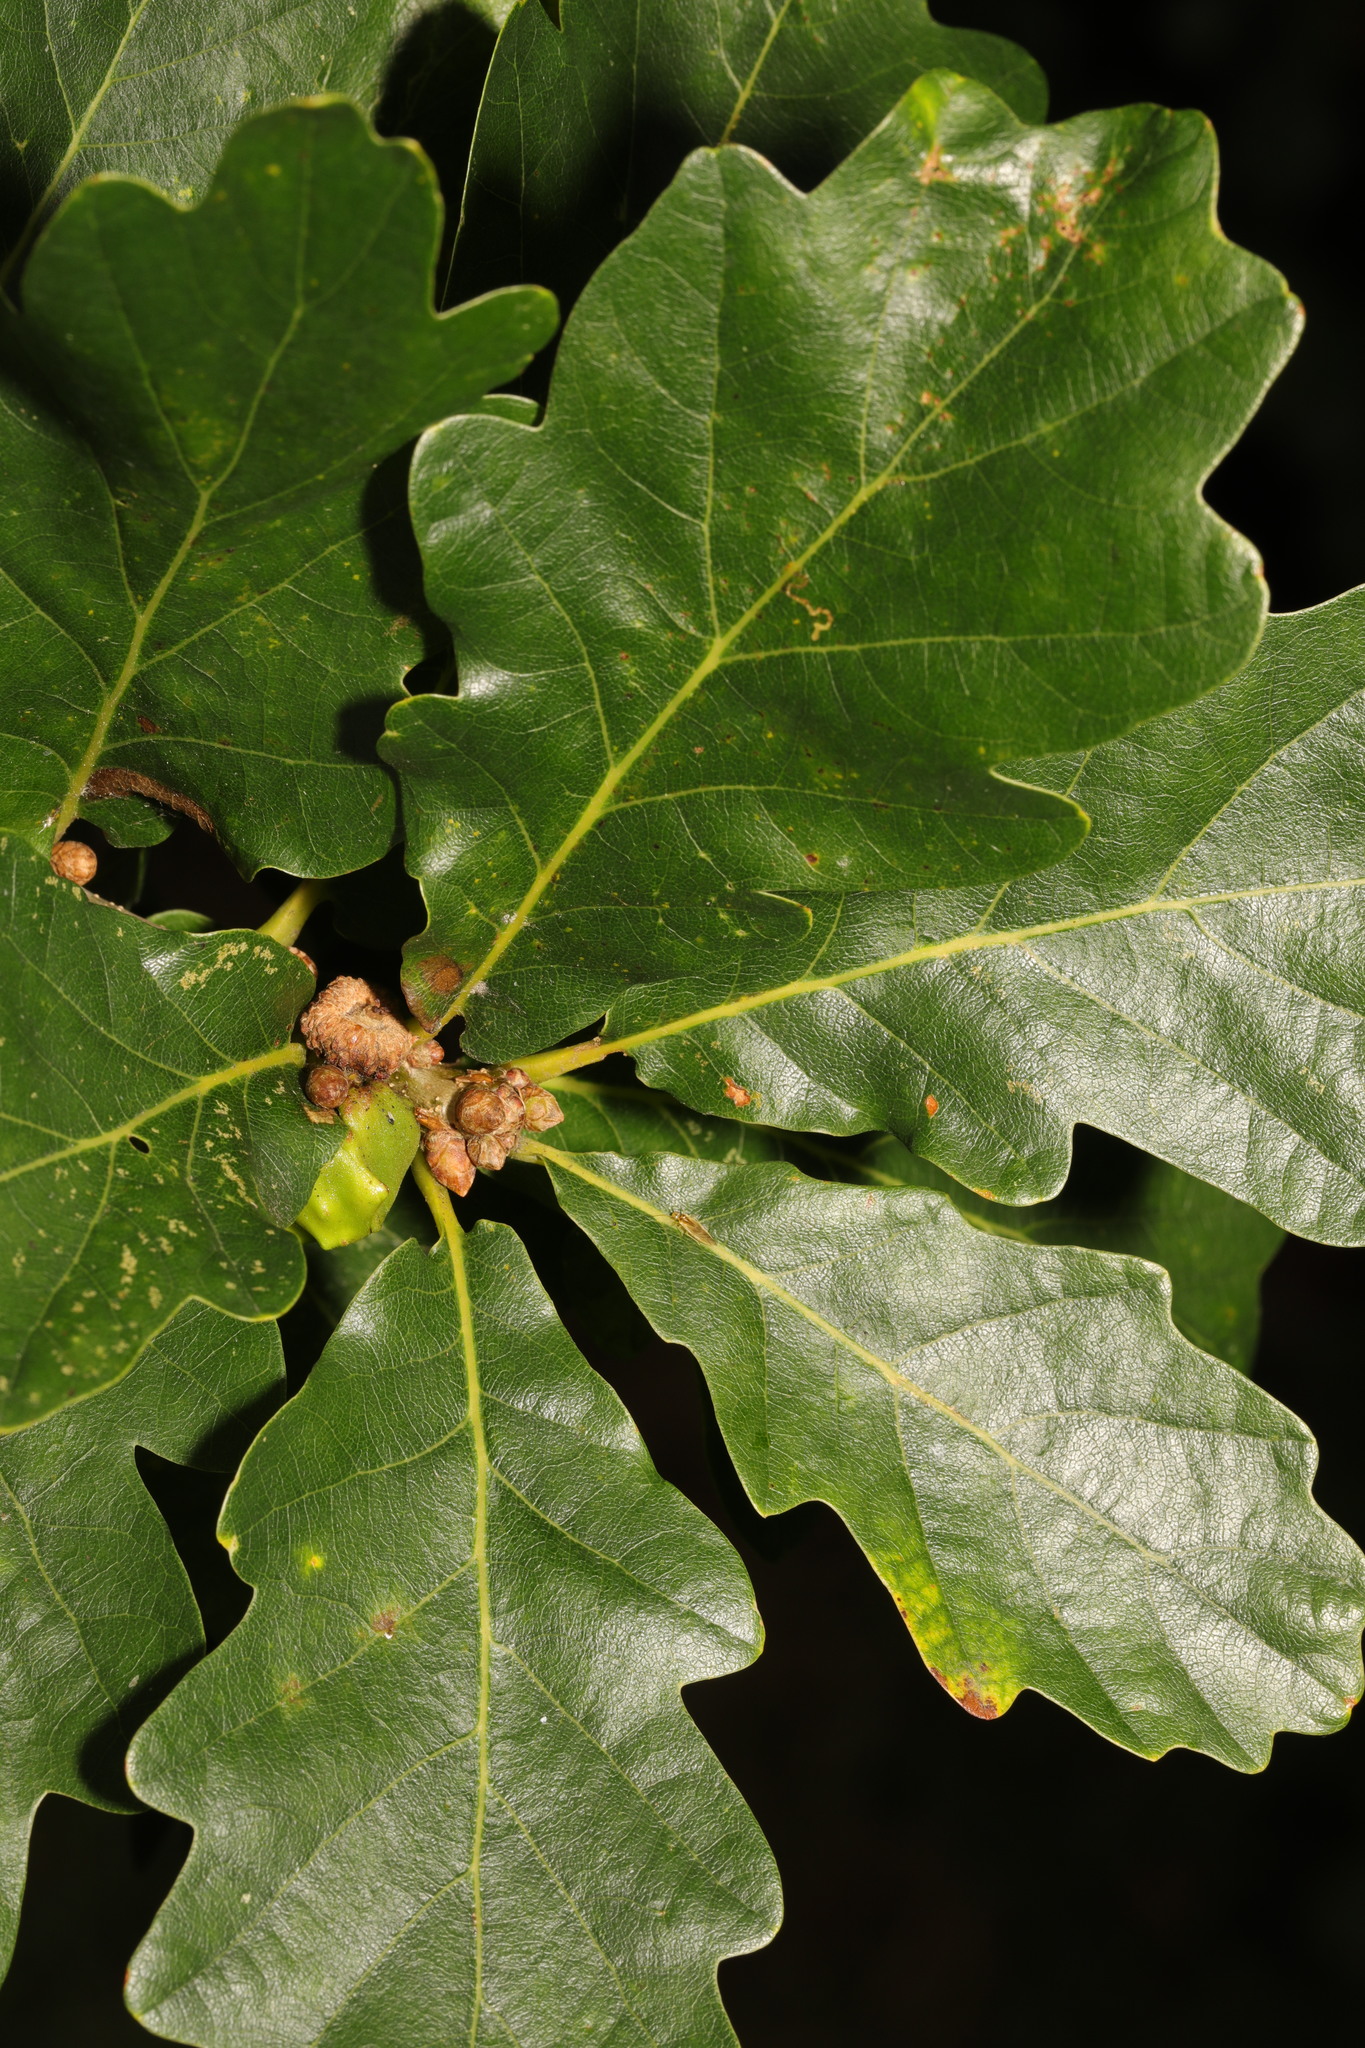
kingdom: Plantae
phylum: Tracheophyta
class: Magnoliopsida
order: Fagales
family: Fagaceae
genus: Quercus
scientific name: Quercus petraea
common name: Sessile oak
